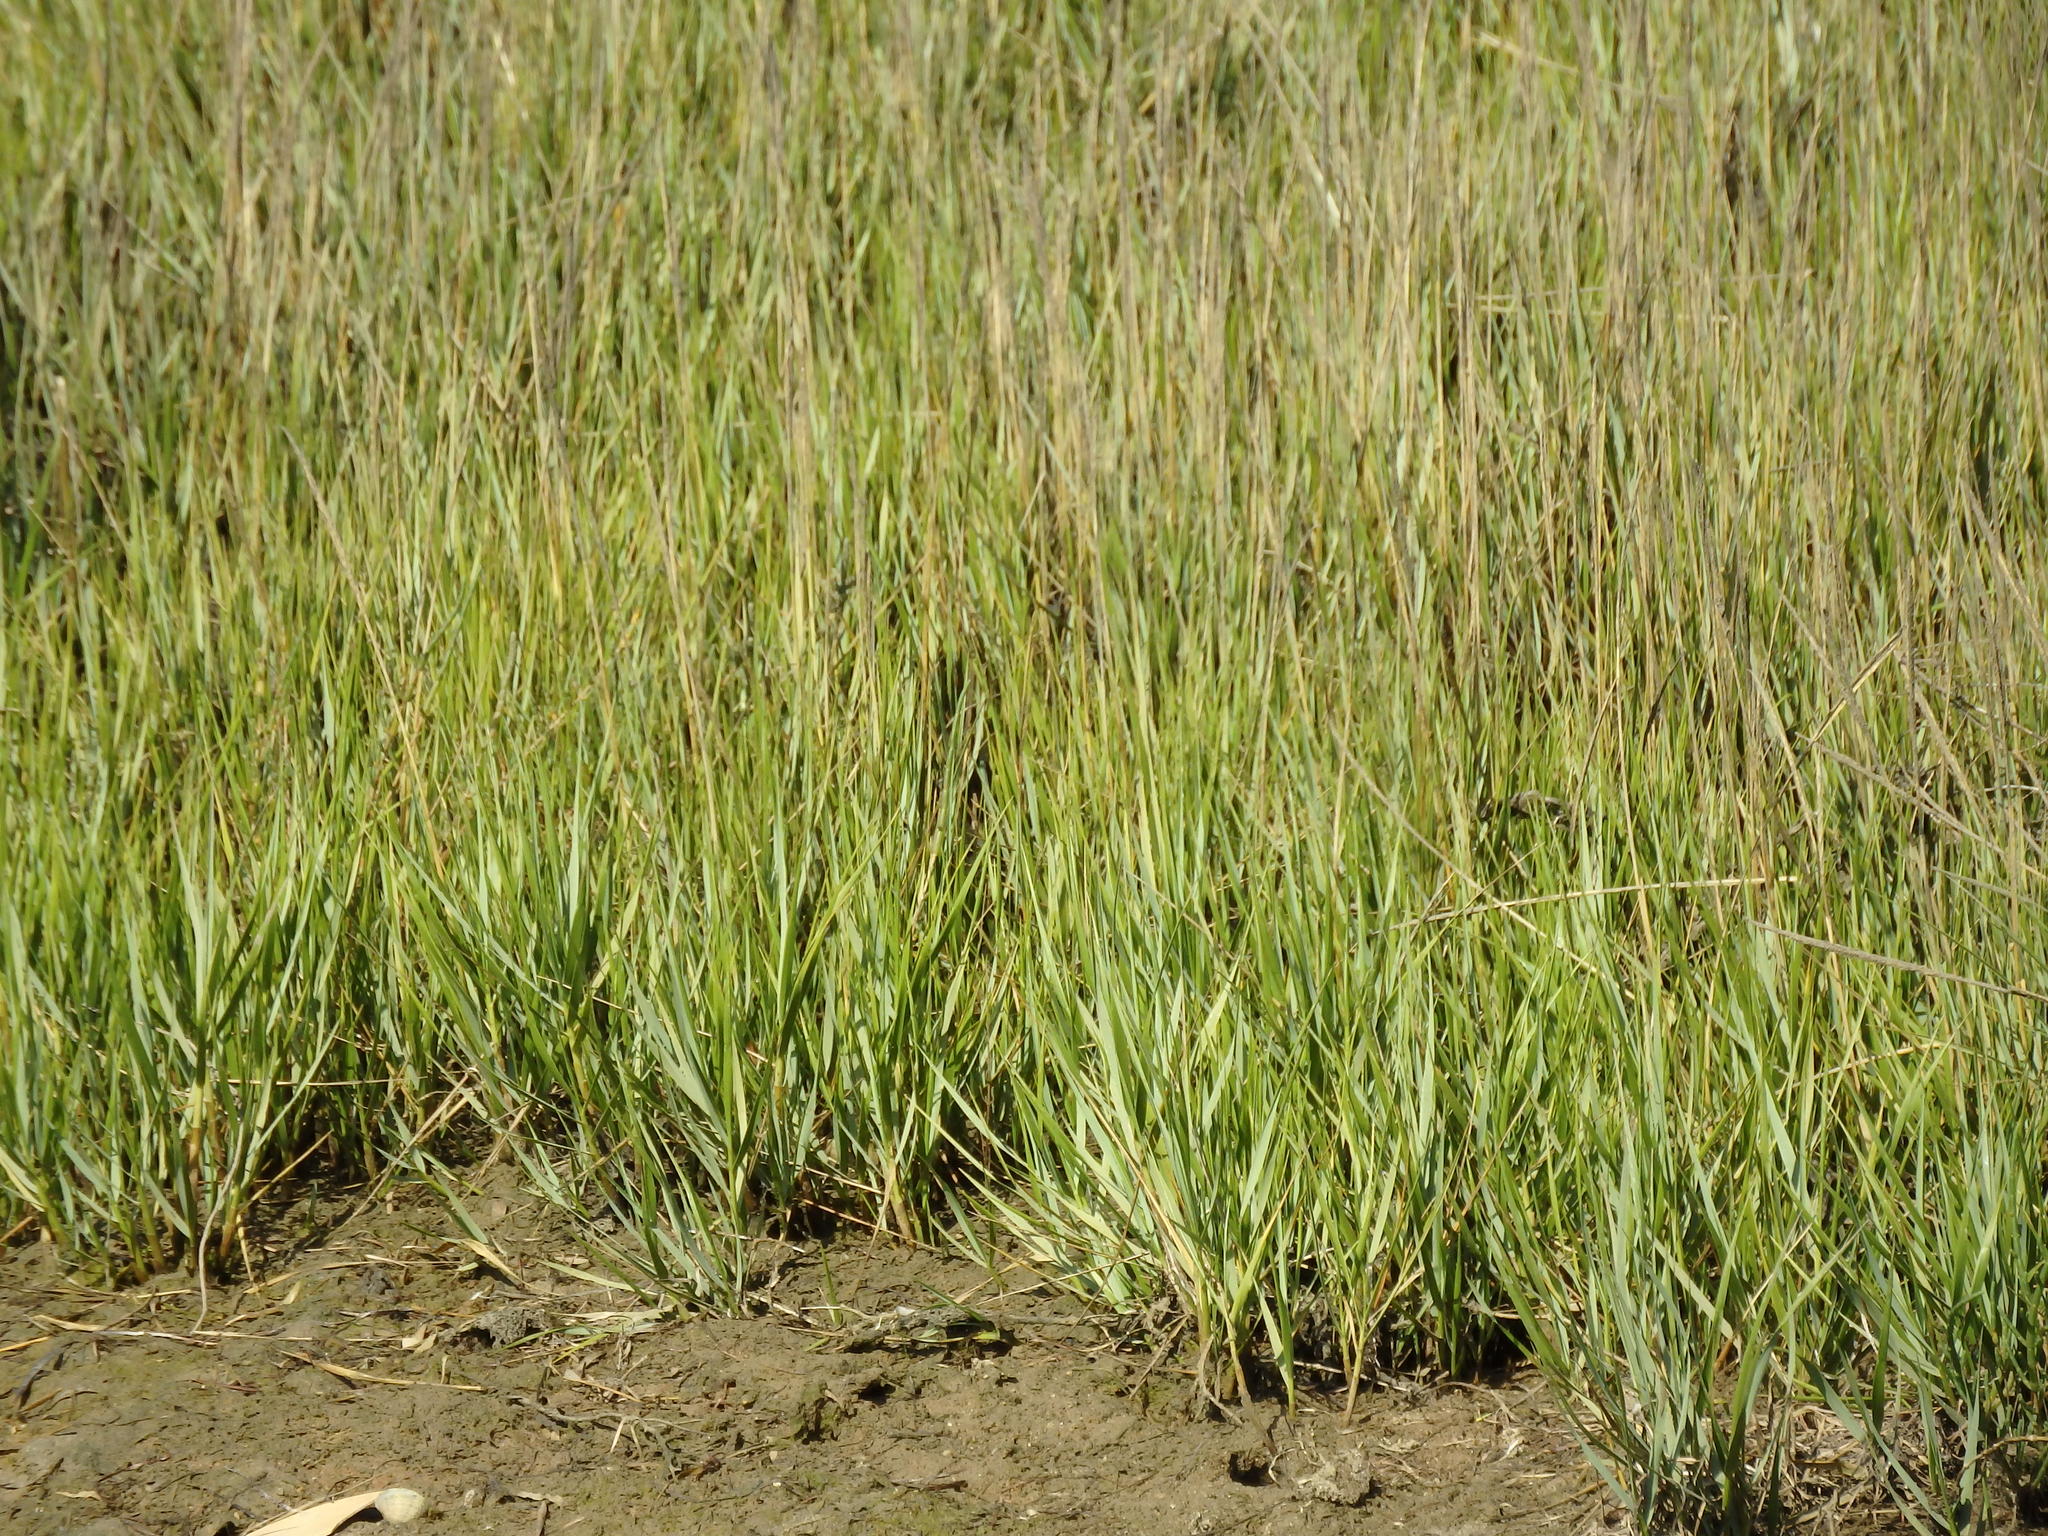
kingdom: Plantae
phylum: Tracheophyta
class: Liliopsida
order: Poales
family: Poaceae
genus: Sporobolus
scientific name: Sporobolus maritimus
